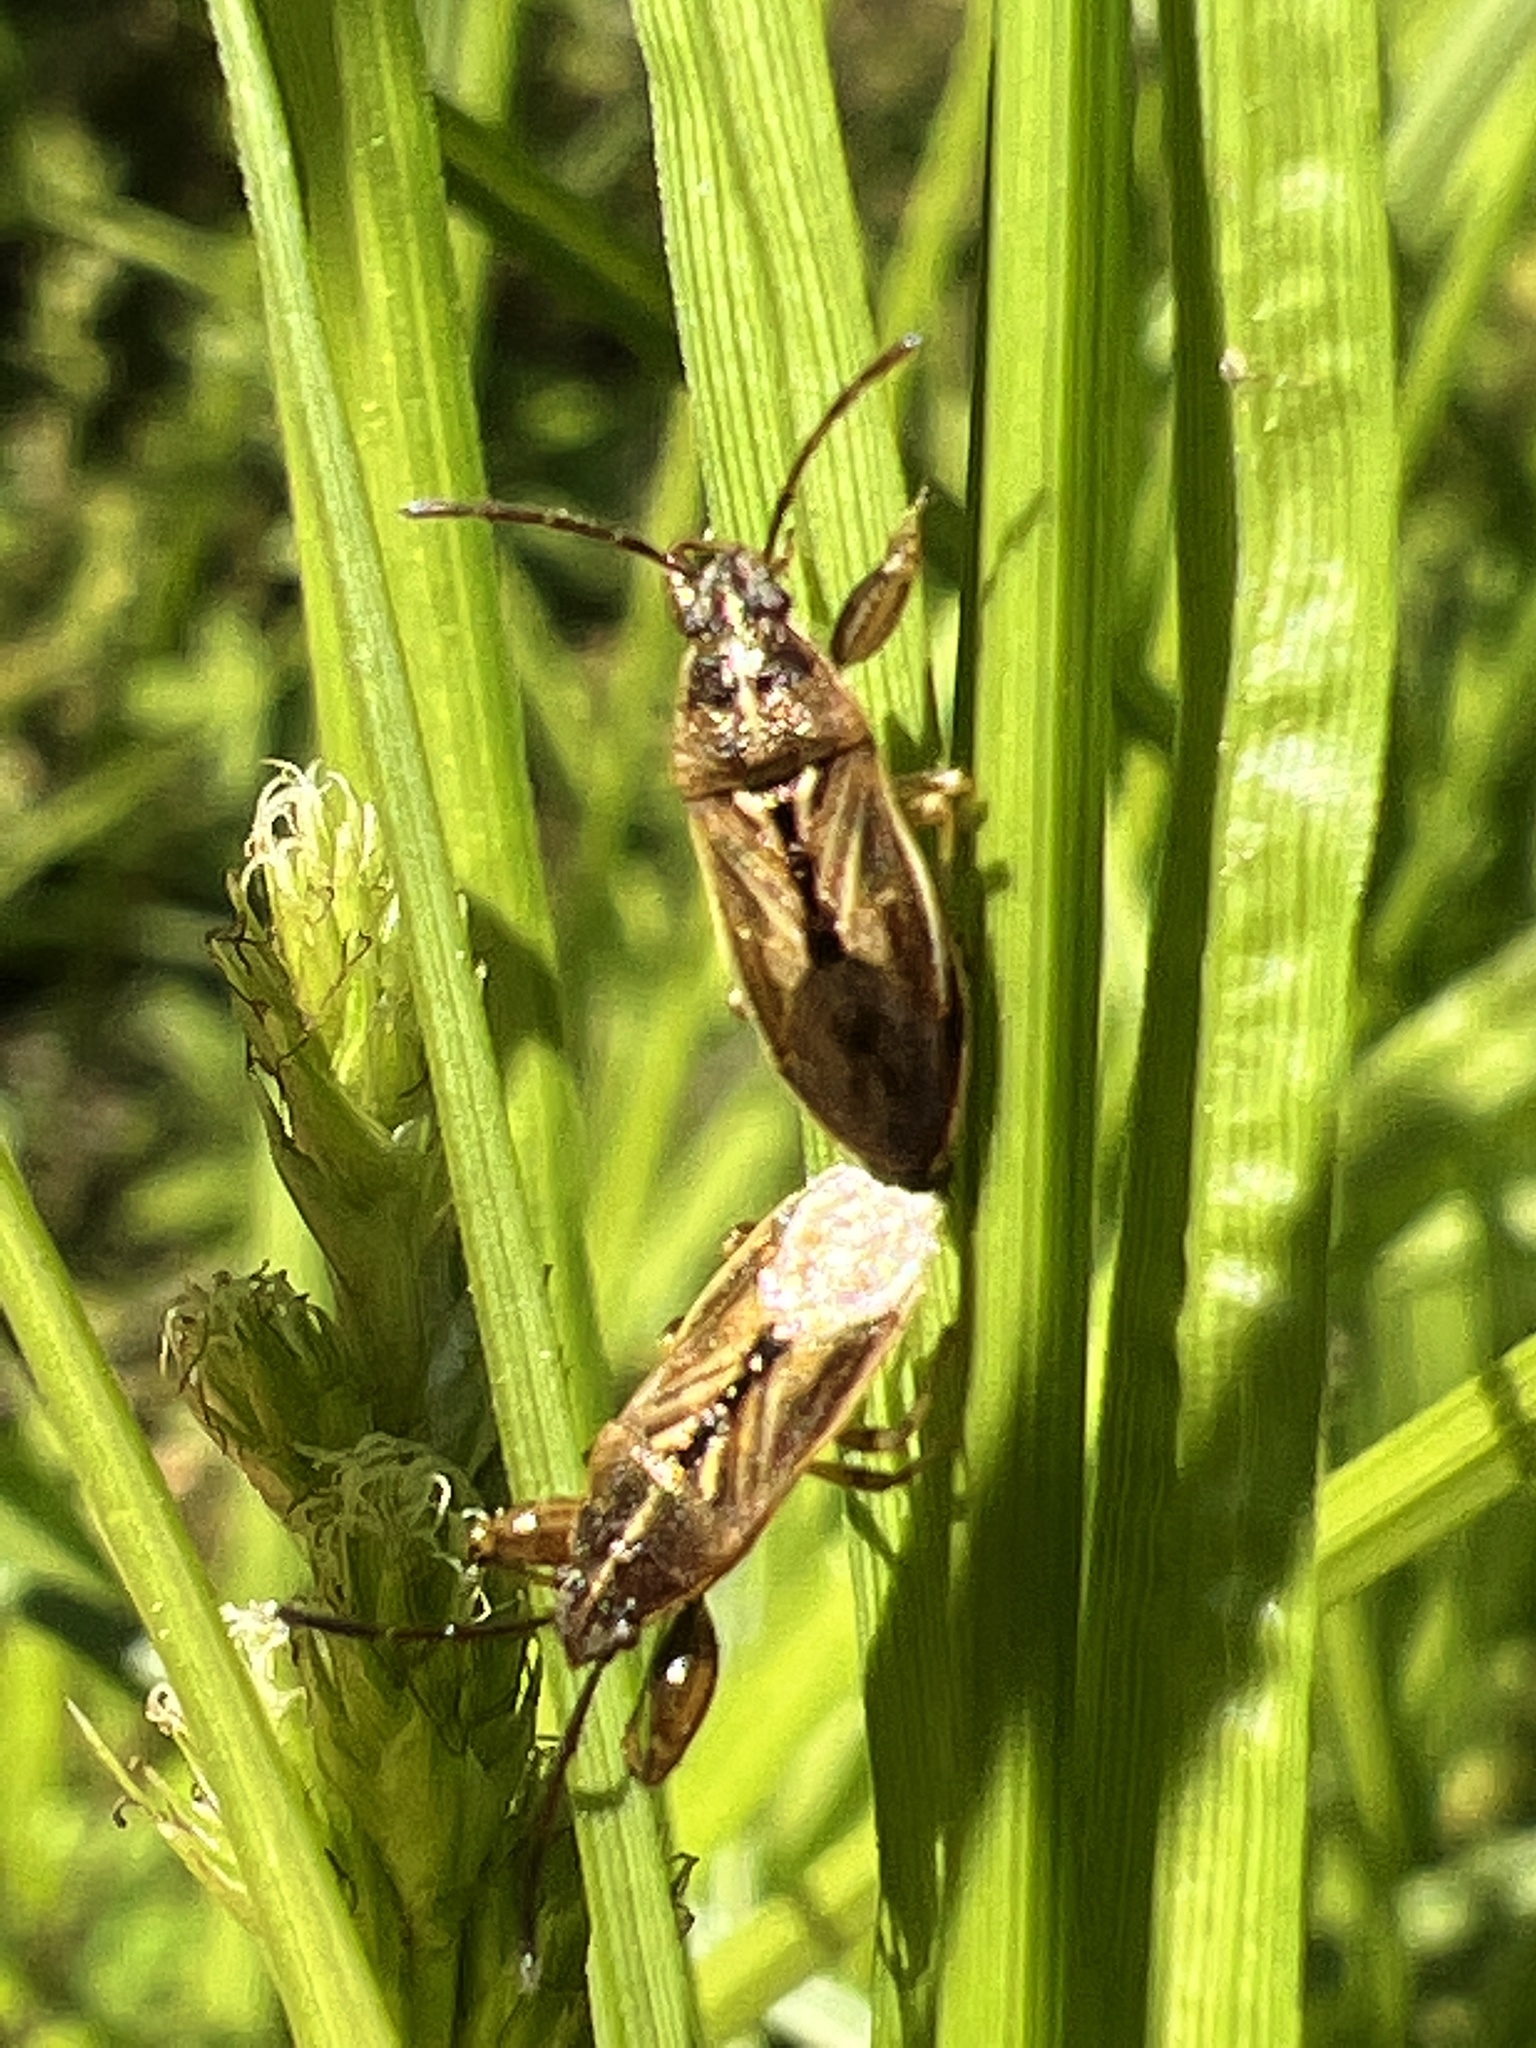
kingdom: Animalia
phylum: Arthropoda
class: Insecta
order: Hemiptera
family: Pachygronthidae
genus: Oedancala
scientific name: Oedancala dorsalis
